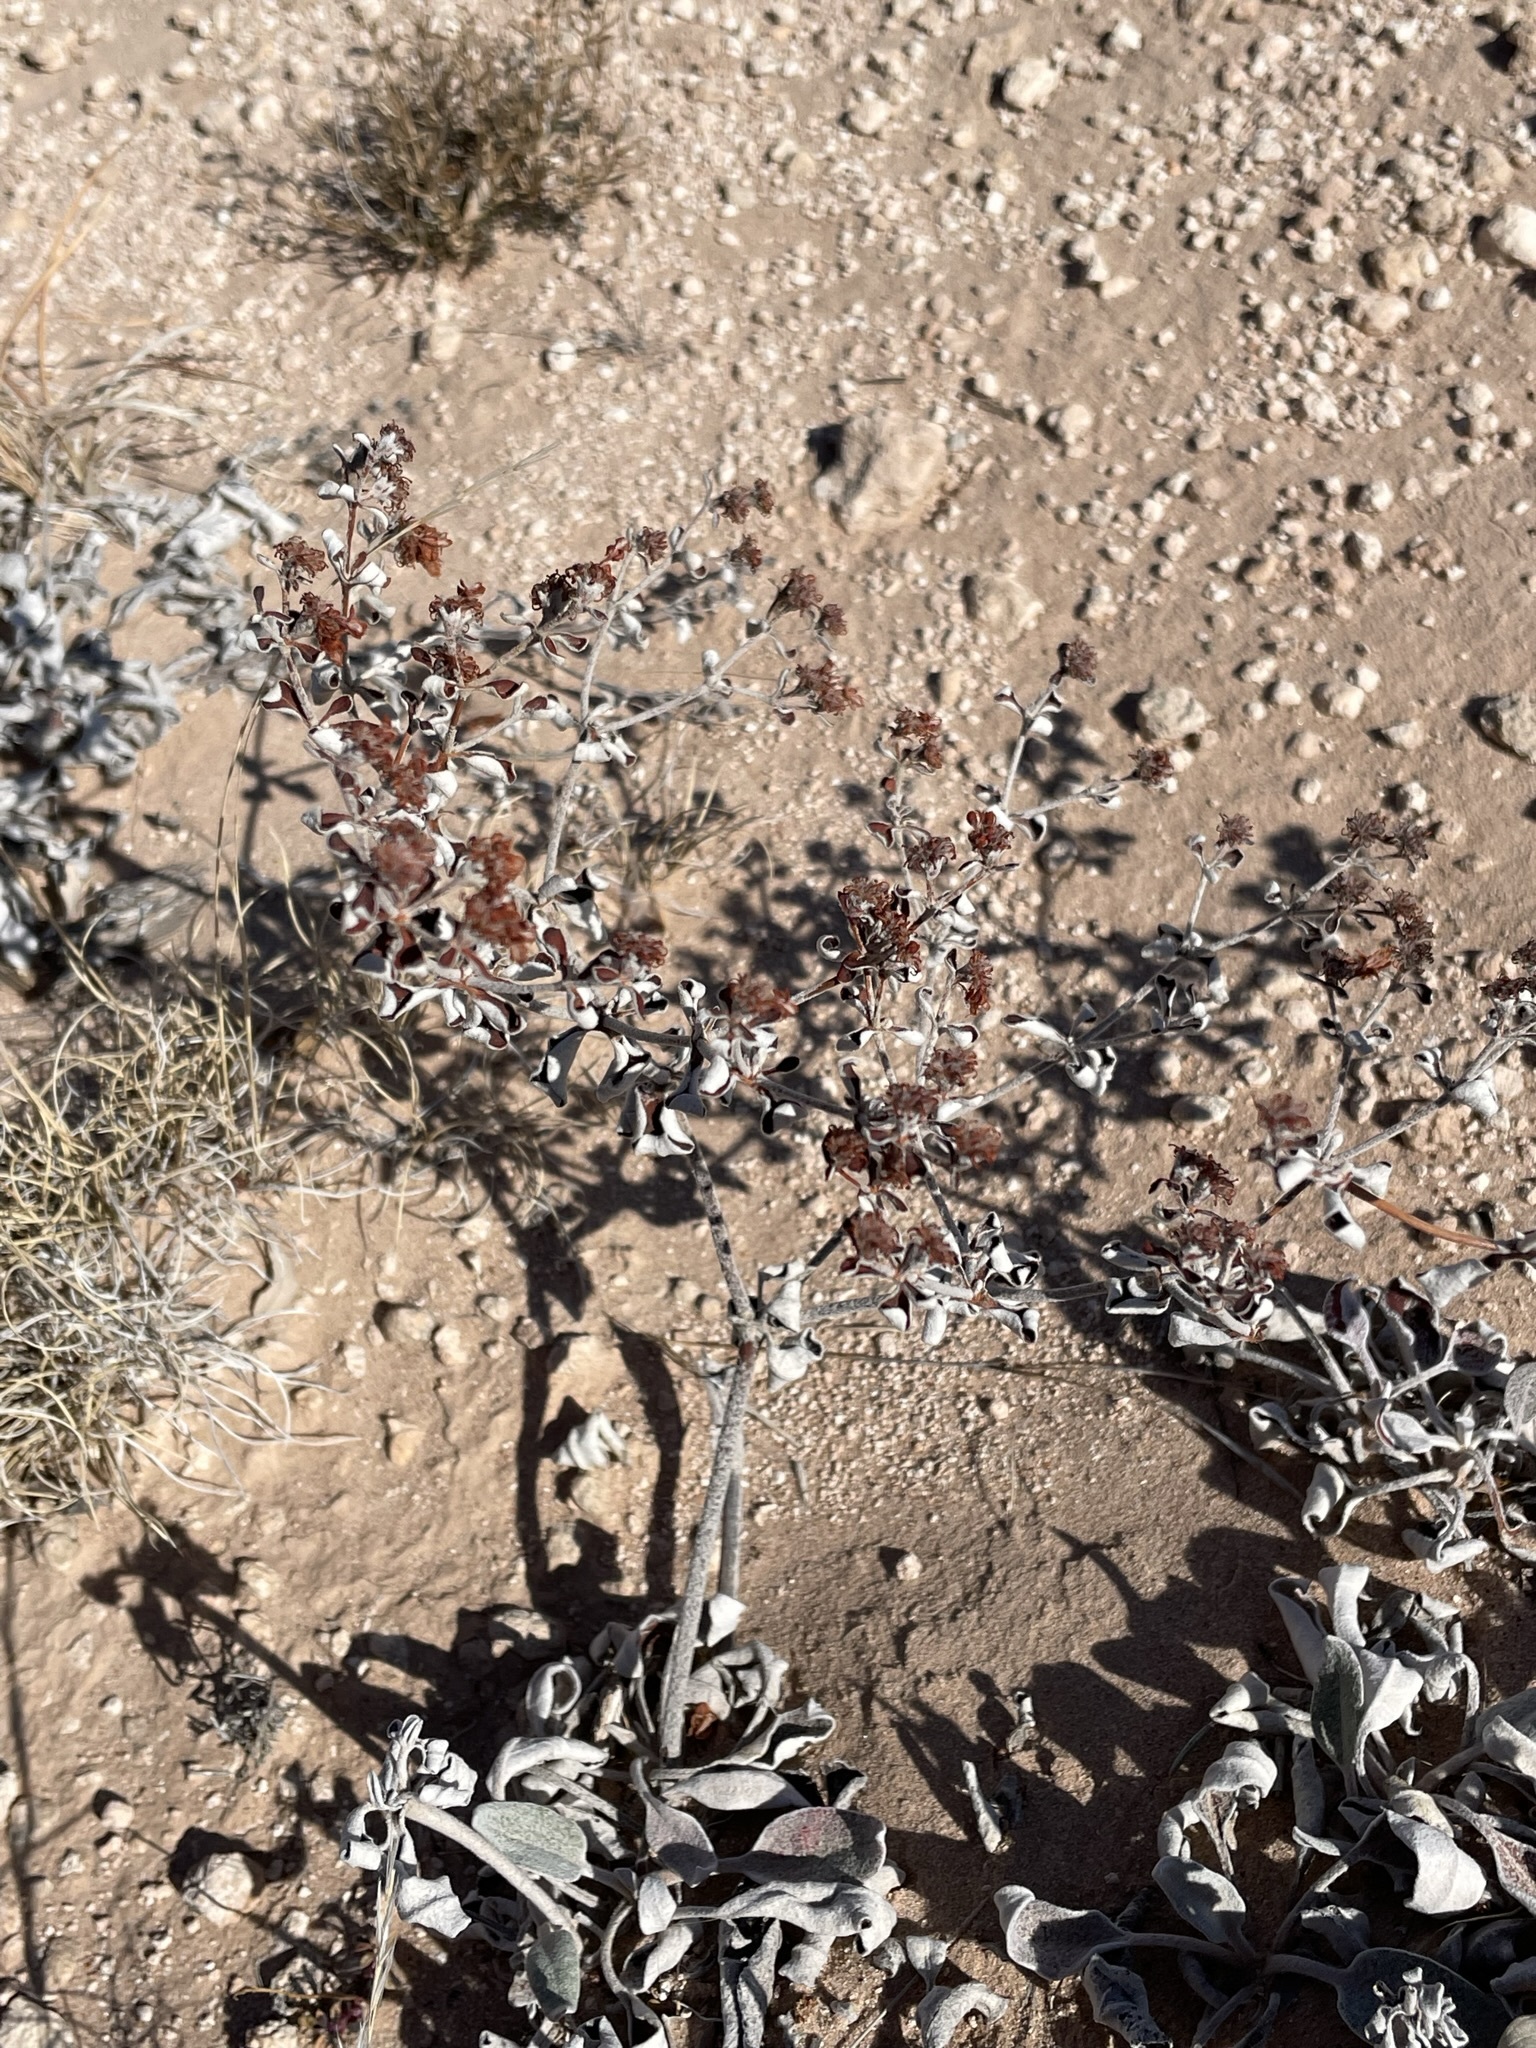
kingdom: Plantae
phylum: Tracheophyta
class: Magnoliopsida
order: Caryophyllales
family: Polygonaceae
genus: Eriogonum
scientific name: Eriogonum correllii
